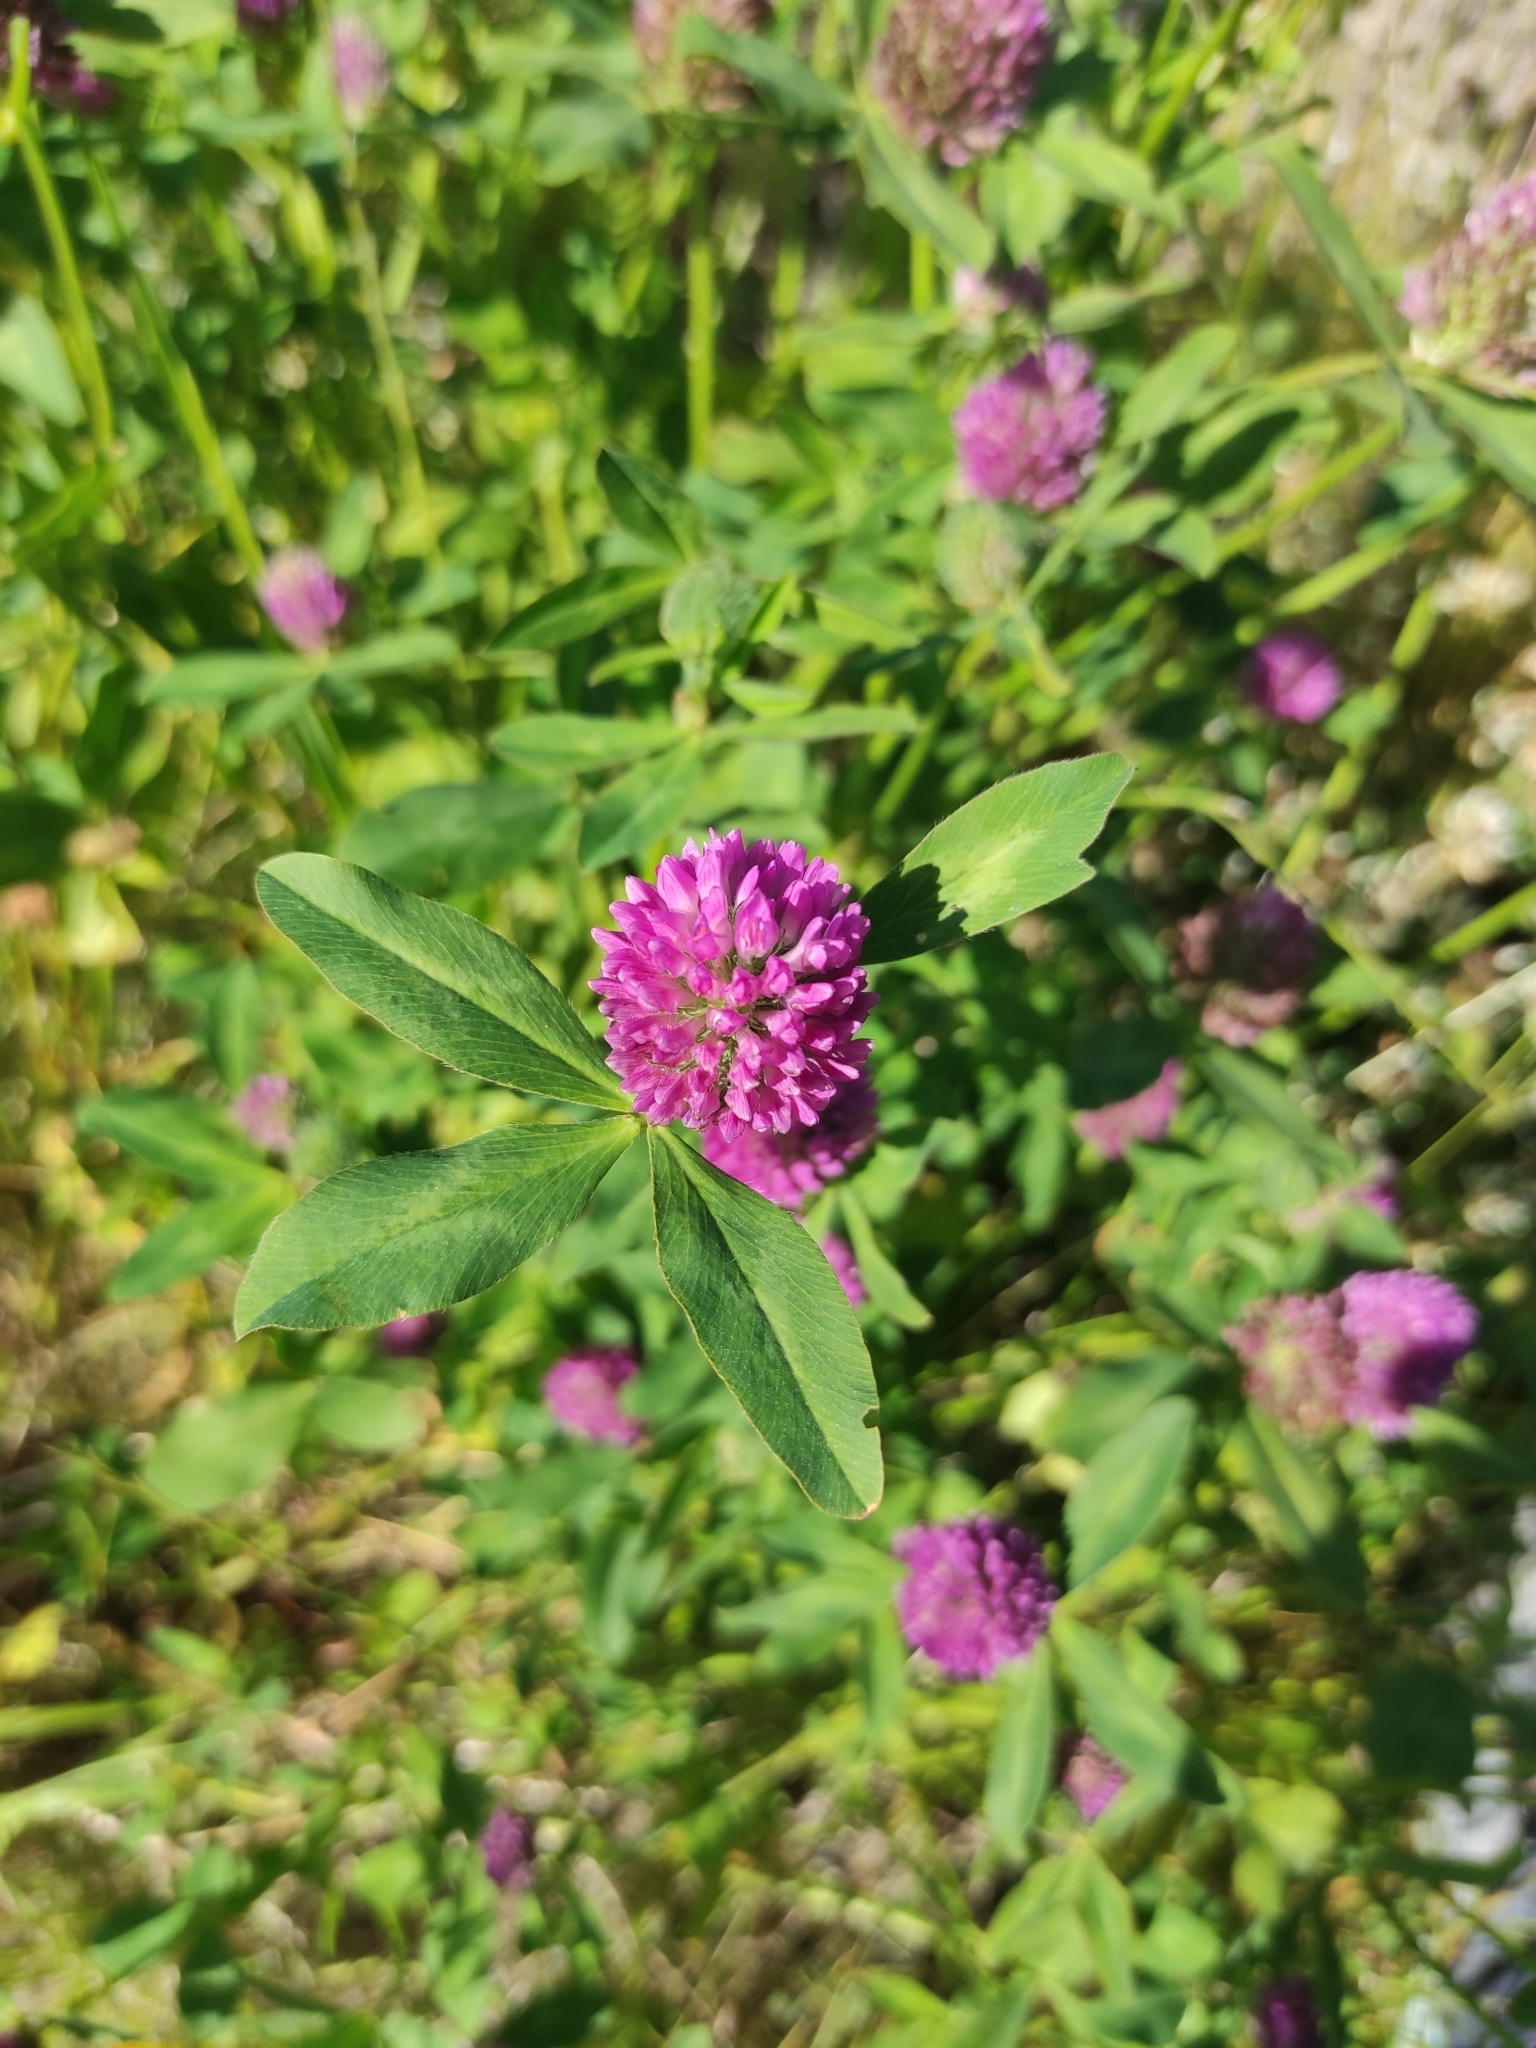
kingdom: Plantae
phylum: Tracheophyta
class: Magnoliopsida
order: Fabales
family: Fabaceae
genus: Trifolium
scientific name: Trifolium medium
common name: Zigzag clover
